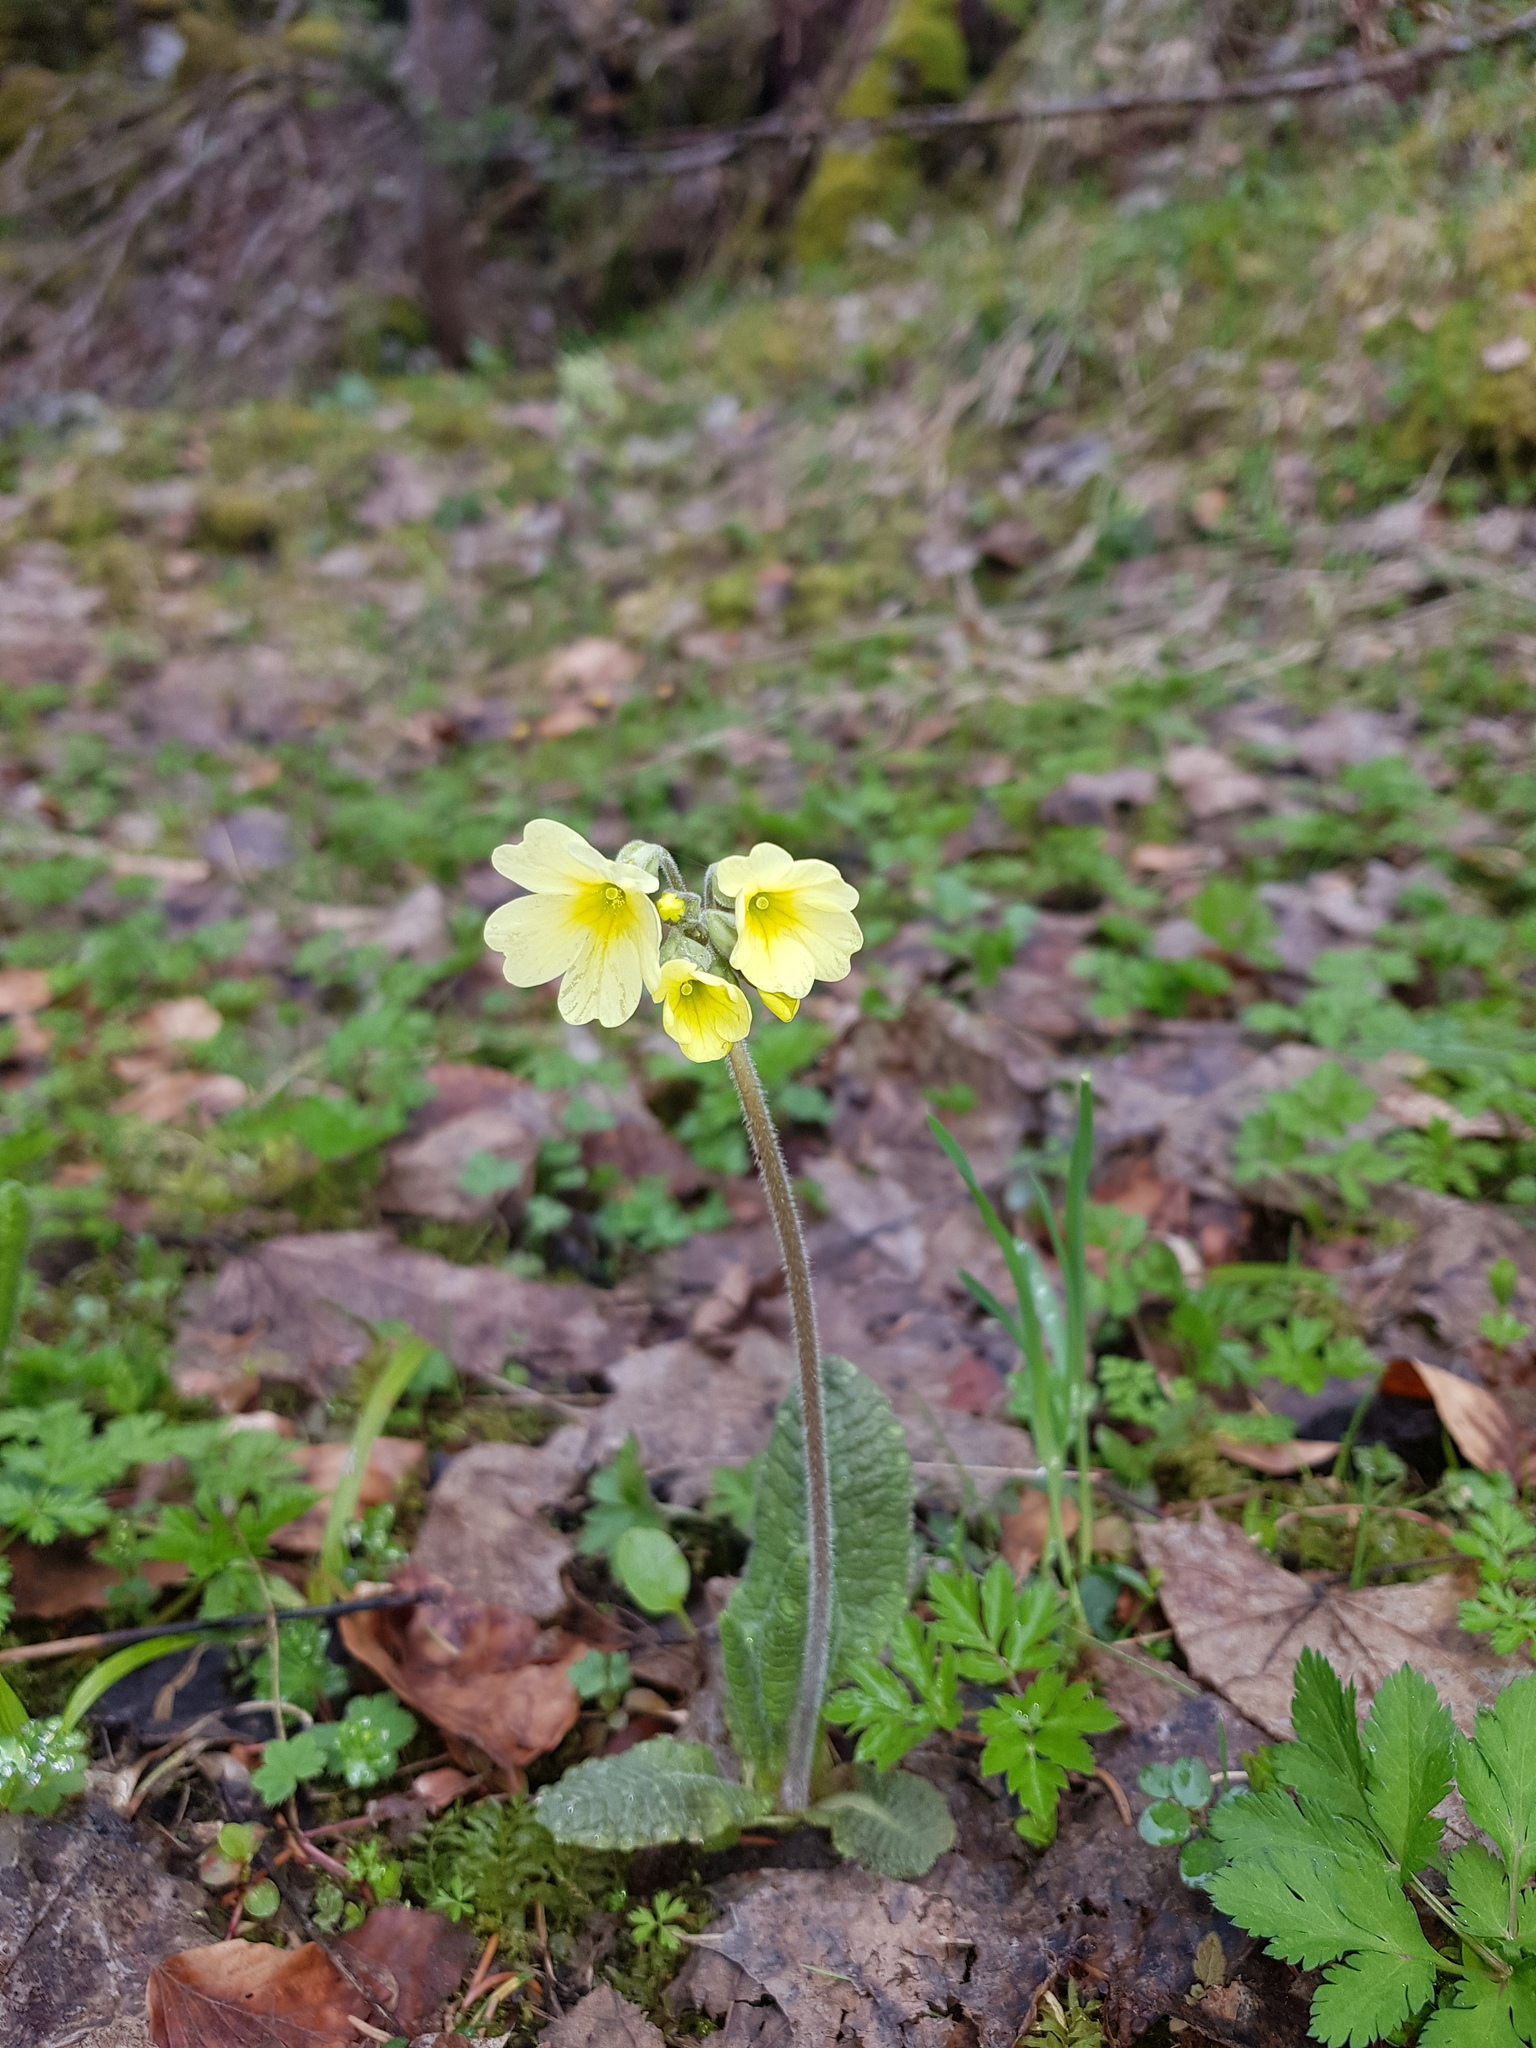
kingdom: Plantae
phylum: Tracheophyta
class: Magnoliopsida
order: Ericales
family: Primulaceae
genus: Primula
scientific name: Primula elatior
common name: Oxlip
